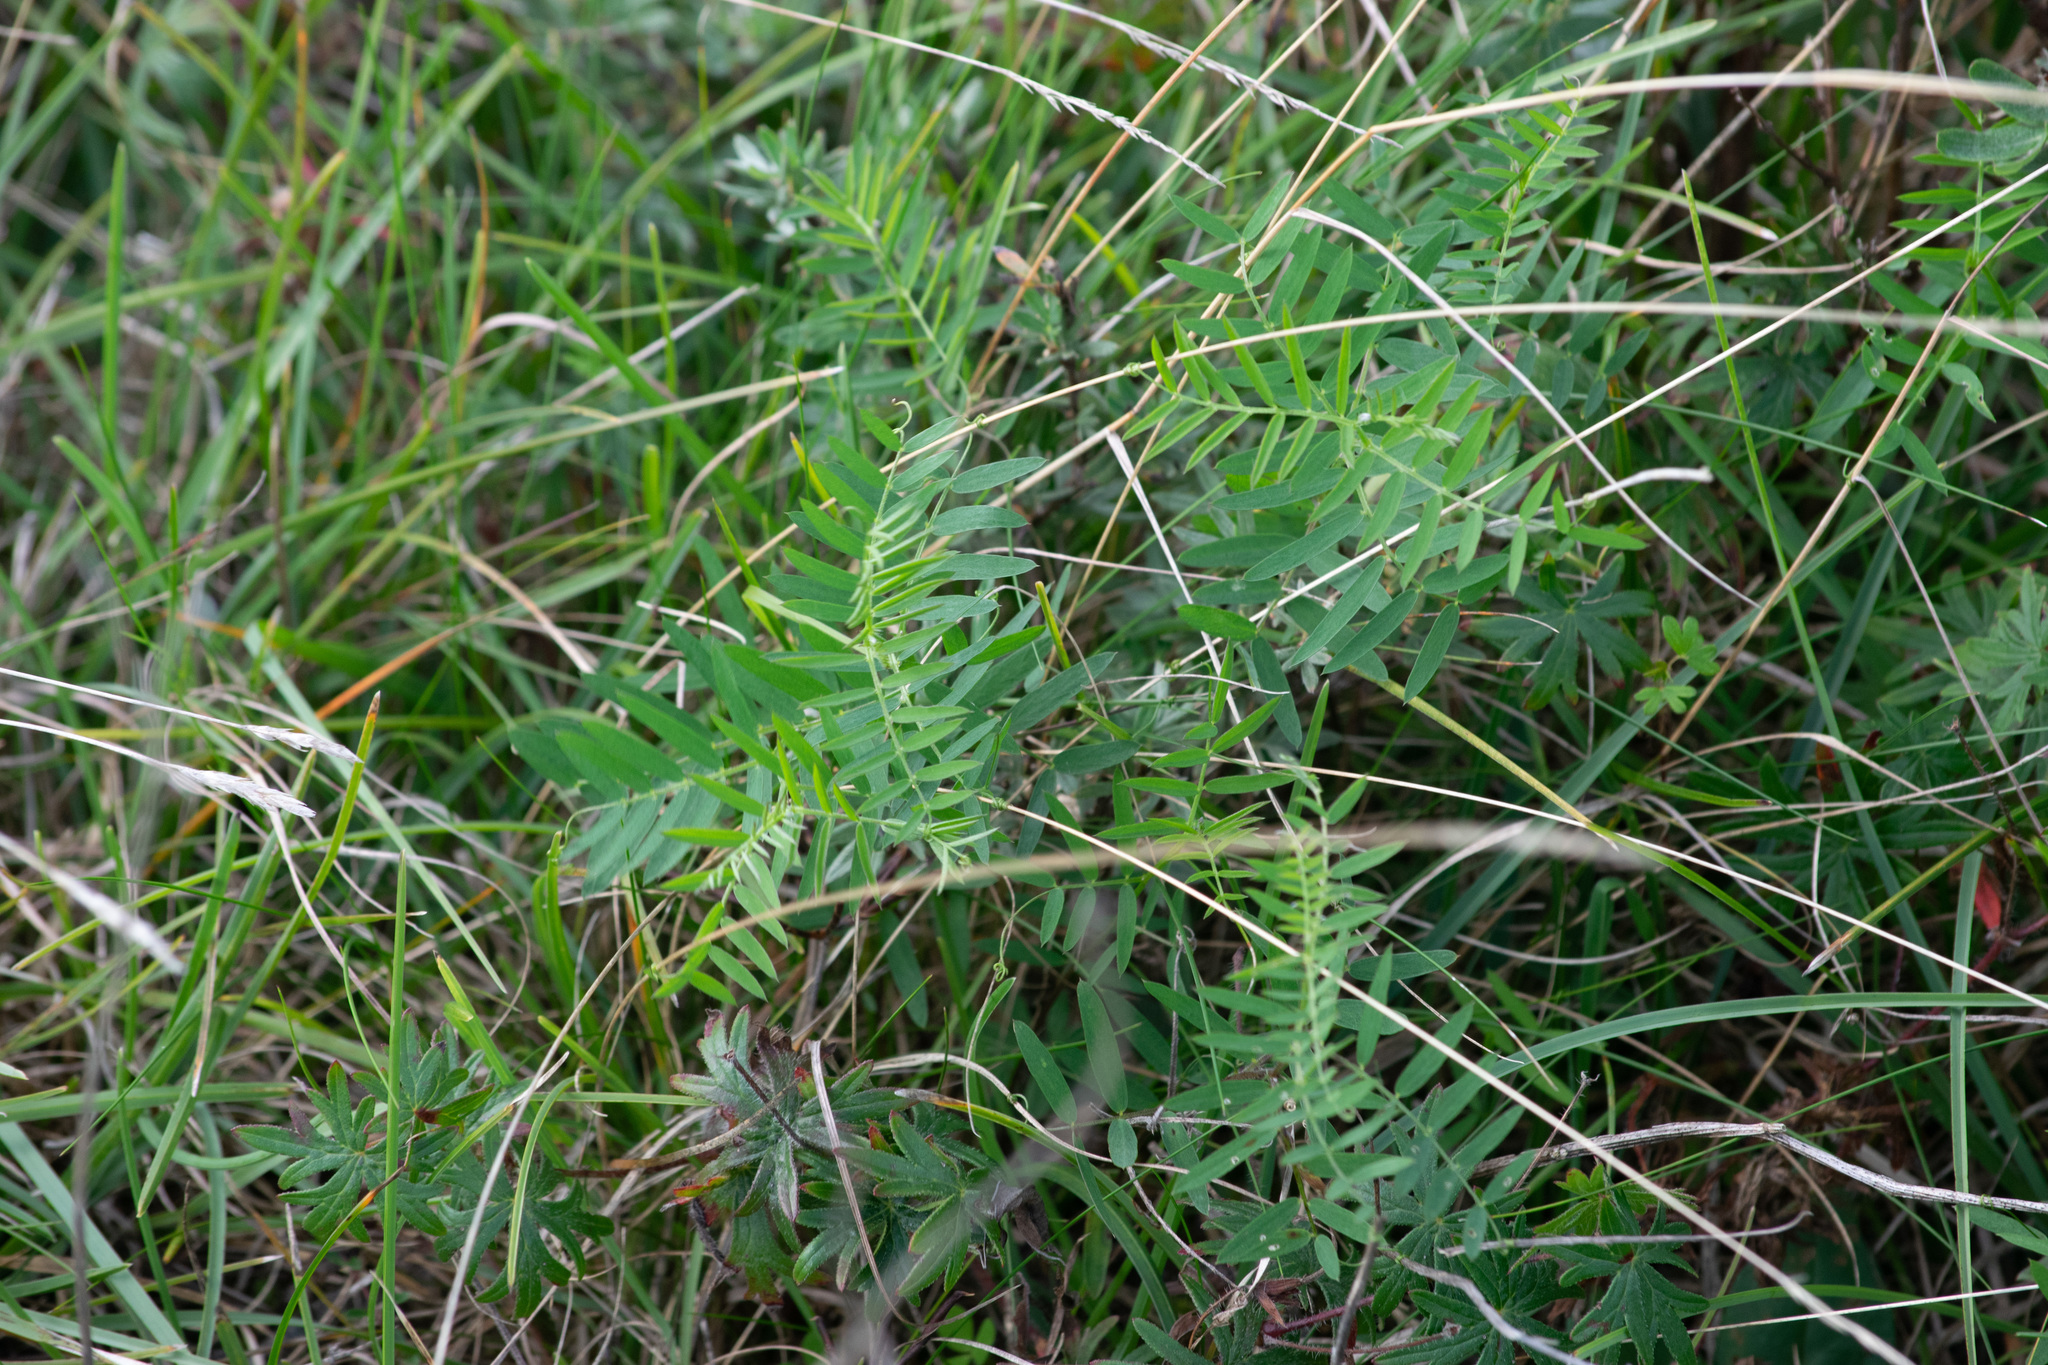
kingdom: Plantae
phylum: Tracheophyta
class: Magnoliopsida
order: Fabales
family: Fabaceae
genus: Vicia
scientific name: Vicia cracca
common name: Bird vetch
